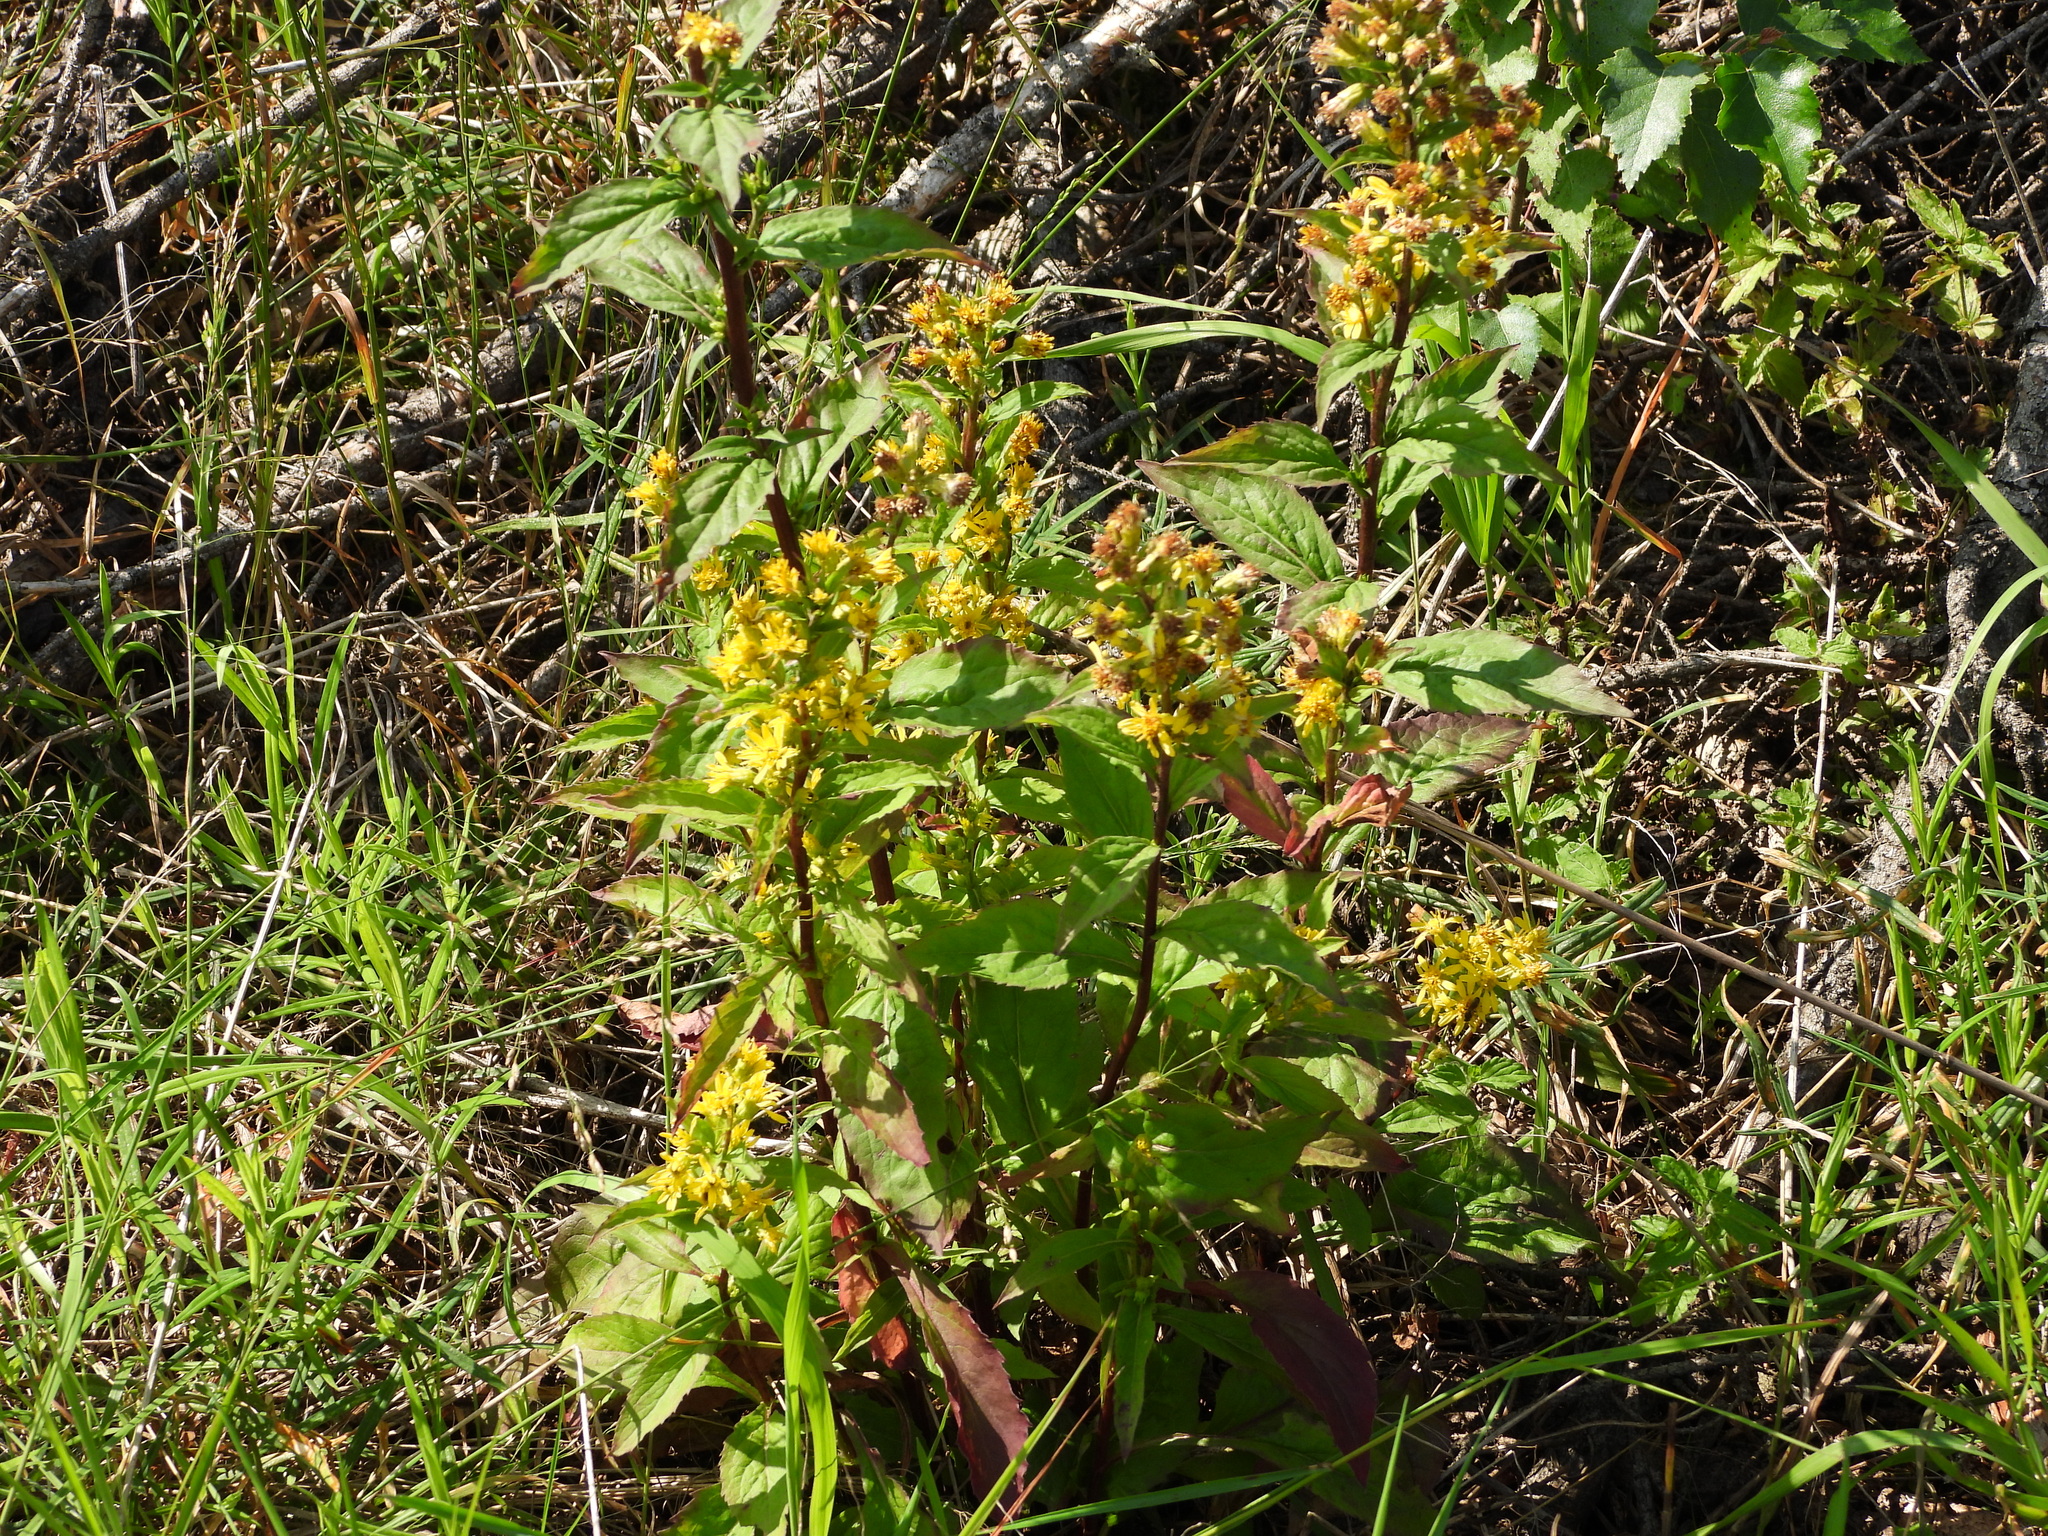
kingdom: Plantae
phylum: Tracheophyta
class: Magnoliopsida
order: Asterales
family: Asteraceae
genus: Solidago
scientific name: Solidago virgaurea
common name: Goldenrod
